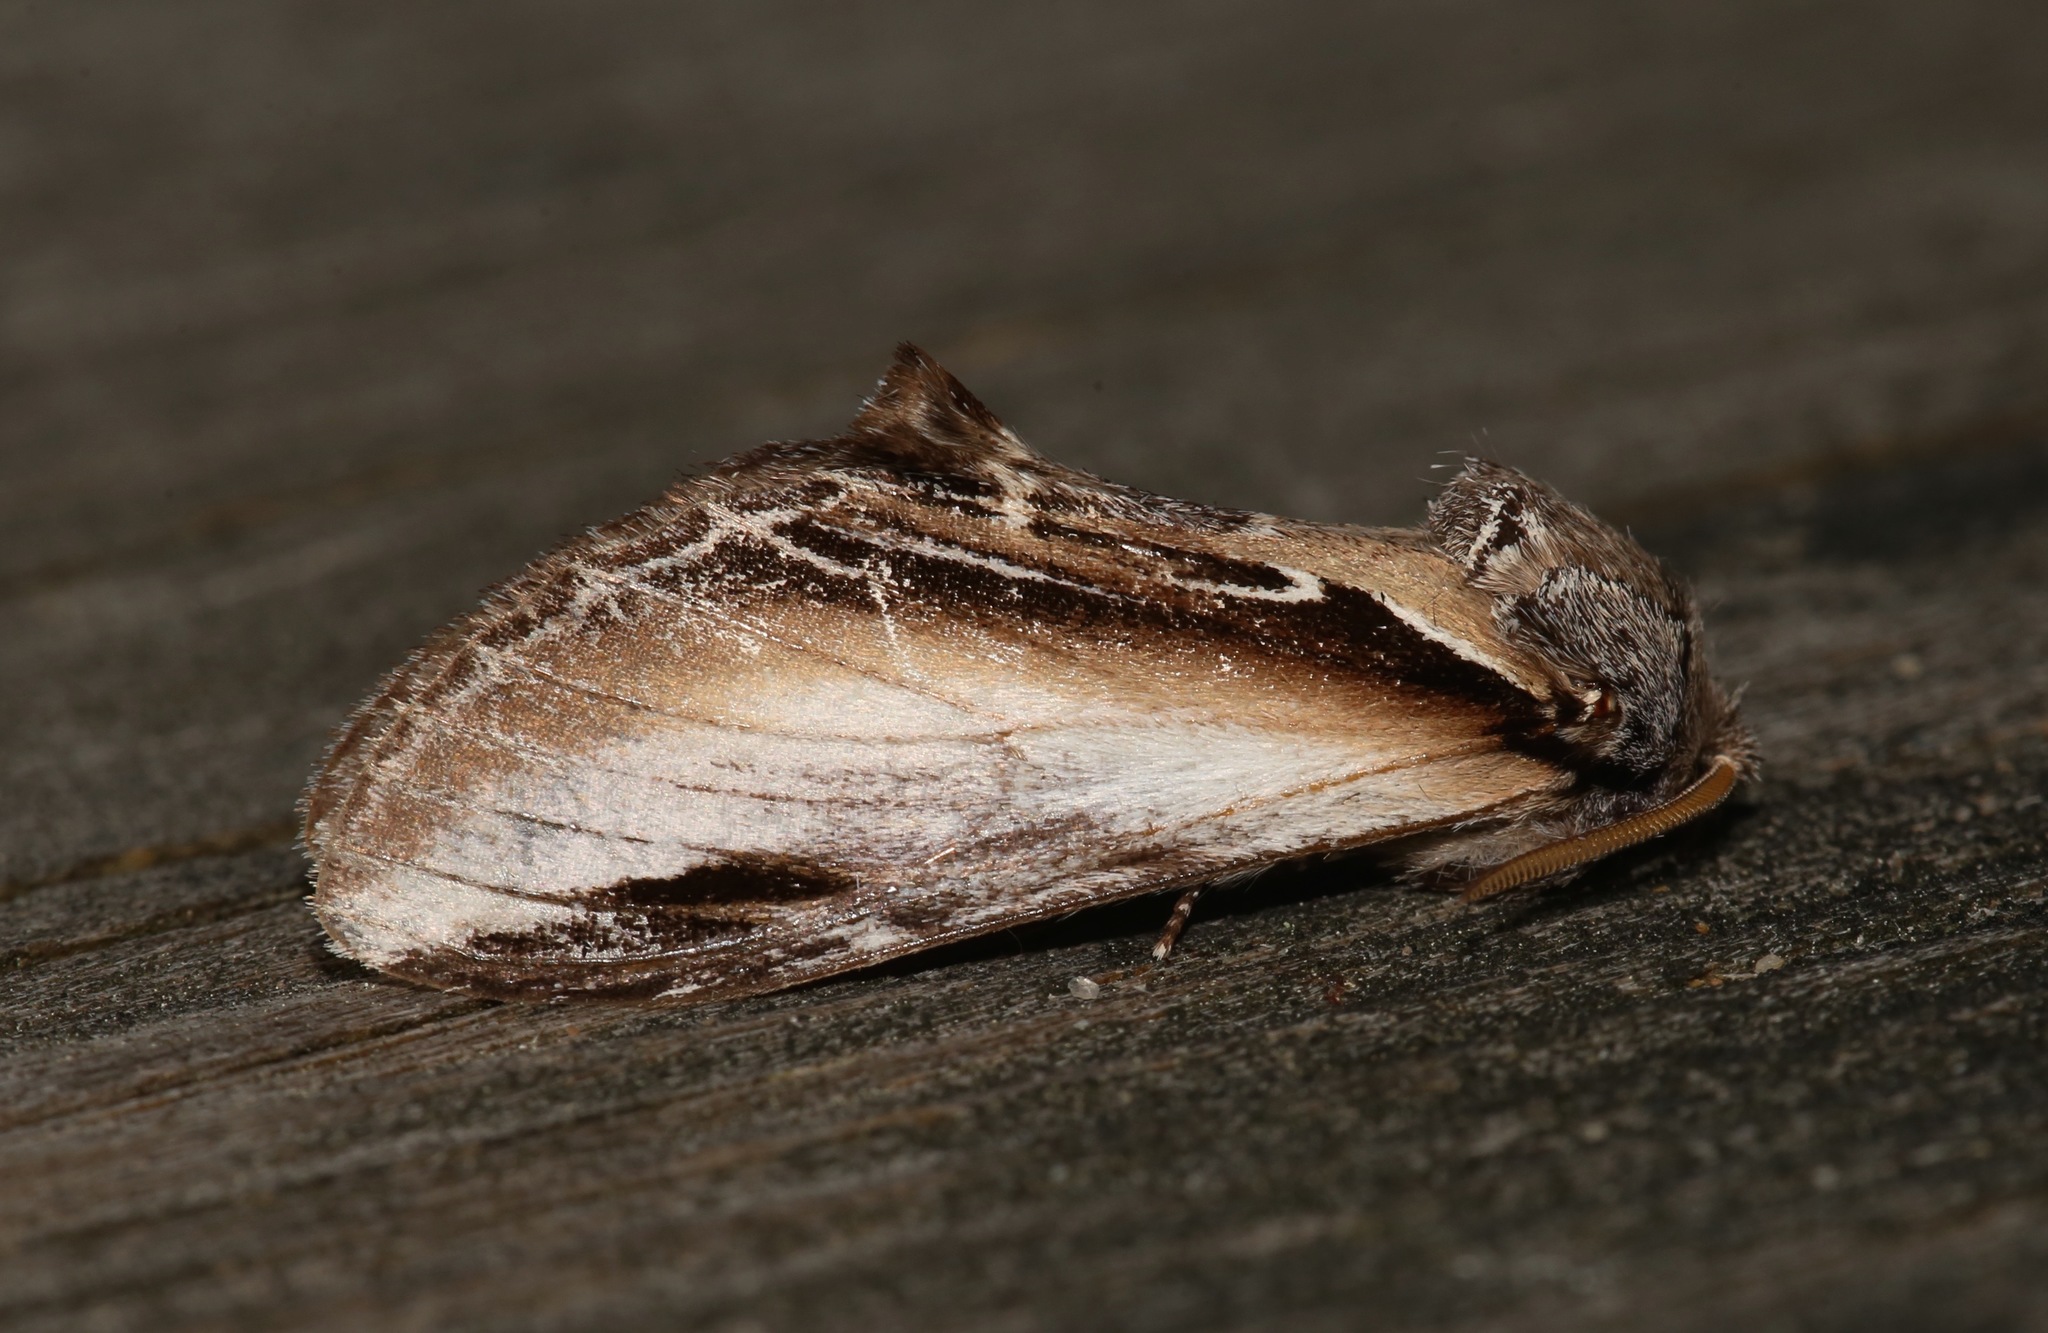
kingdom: Animalia
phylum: Arthropoda
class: Insecta
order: Lepidoptera
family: Notodontidae
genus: Pheosia
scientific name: Pheosia rimosa
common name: Black-rimmed prominent
